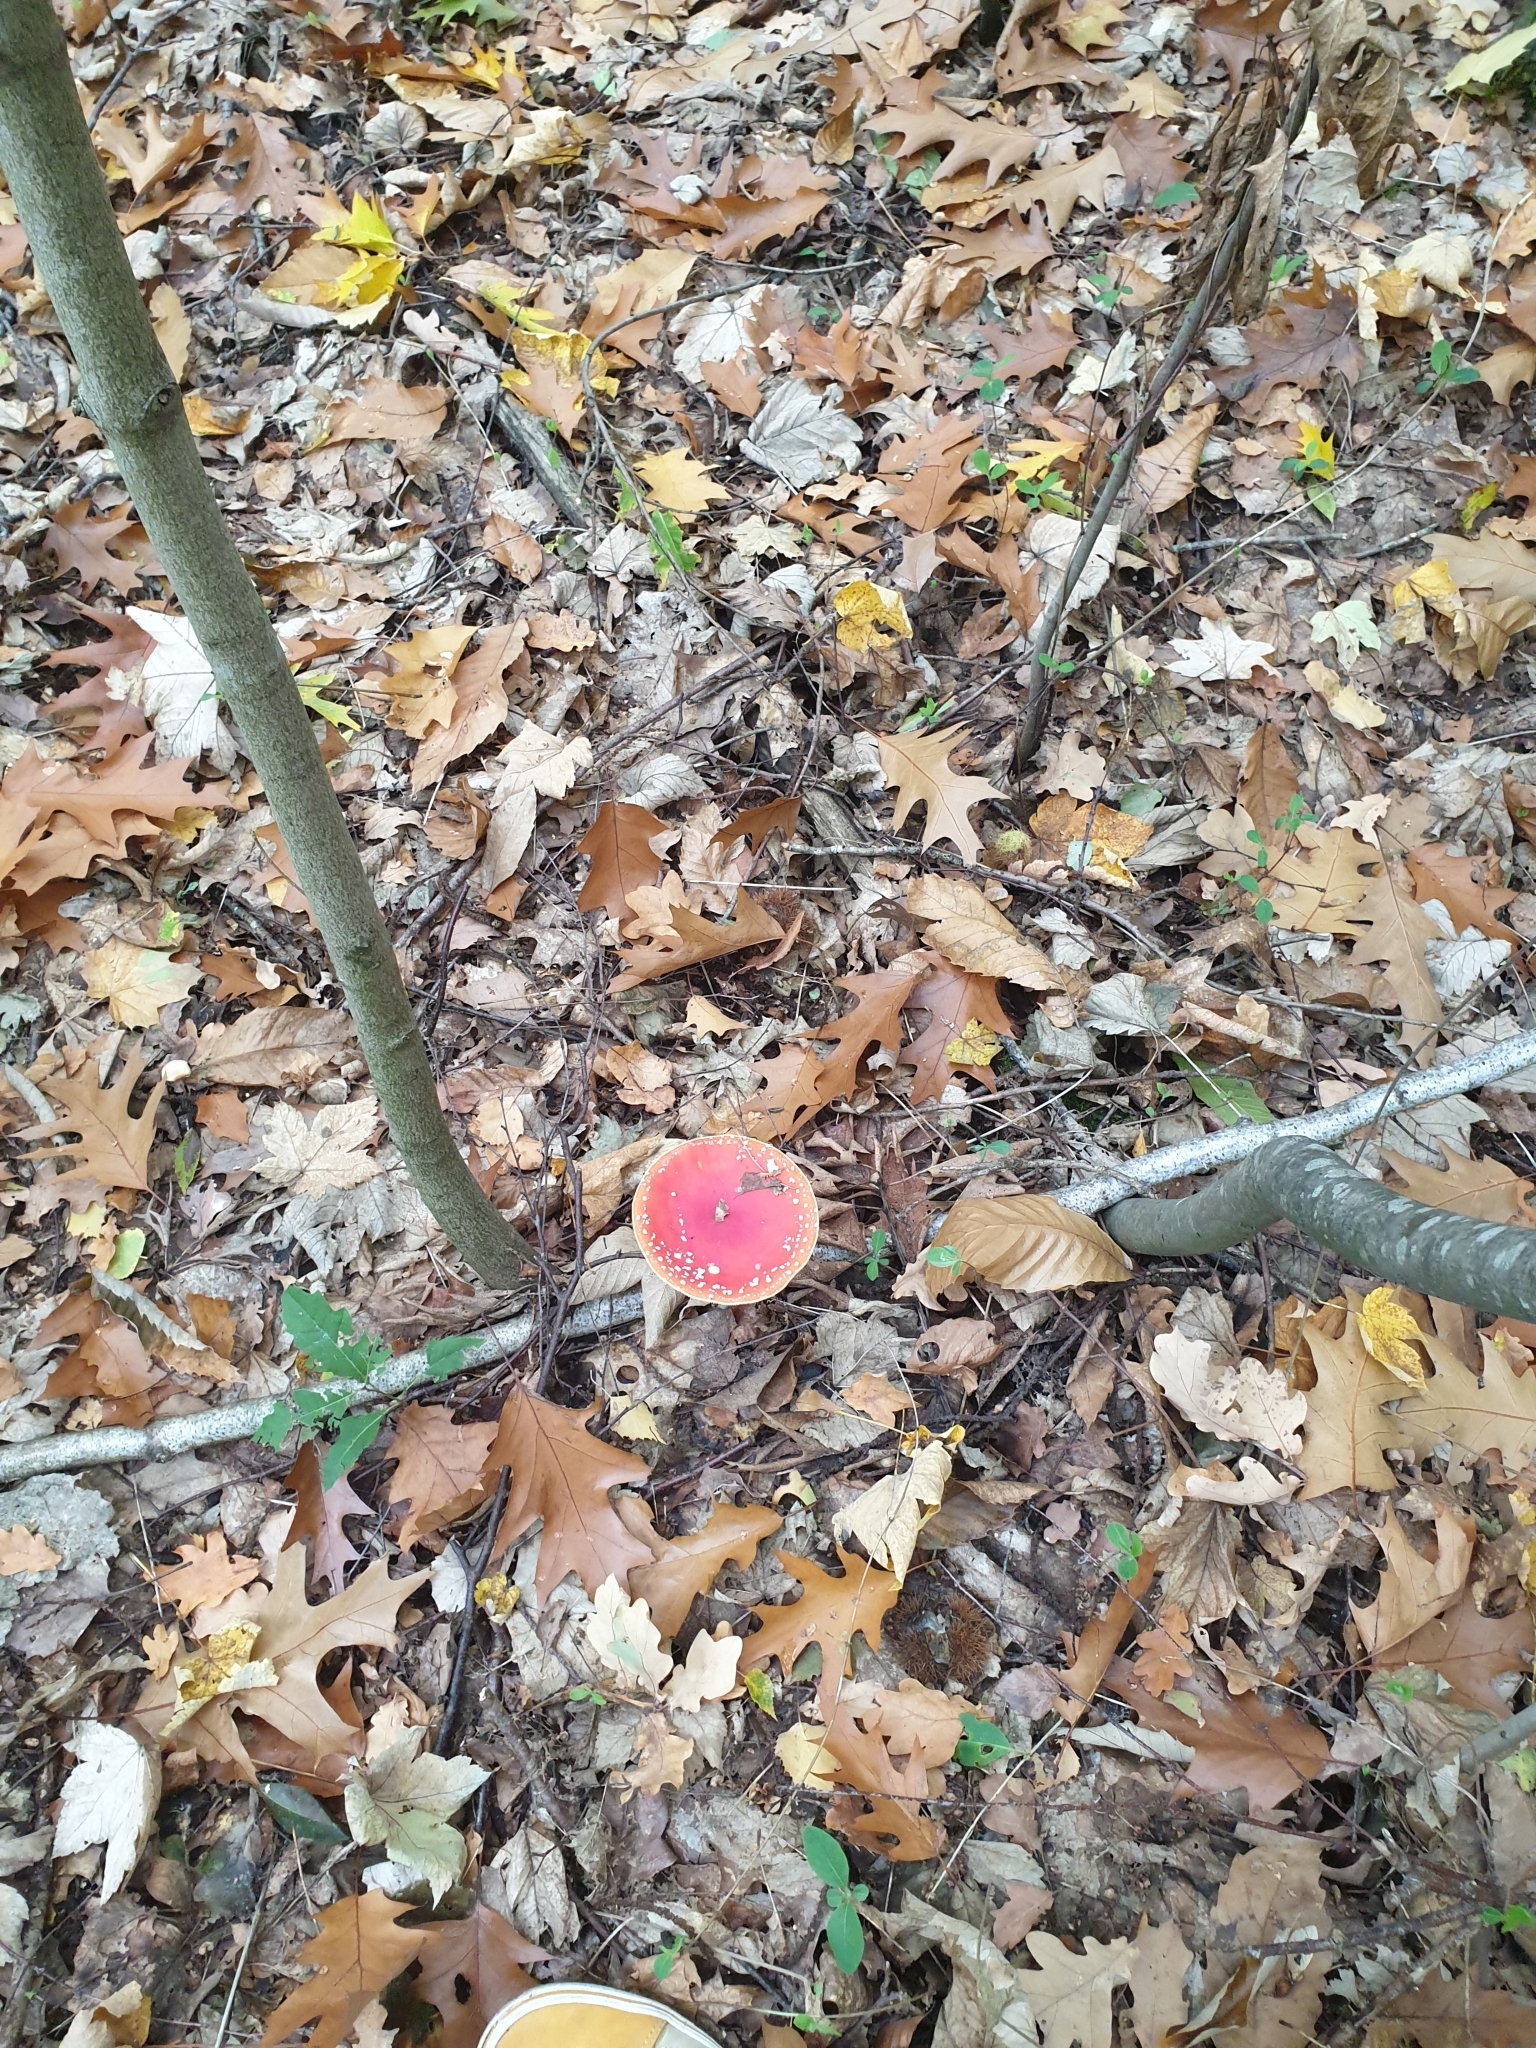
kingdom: Fungi
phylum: Basidiomycota
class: Agaricomycetes
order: Agaricales
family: Amanitaceae
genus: Amanita
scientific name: Amanita muscaria
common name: Fly agaric
